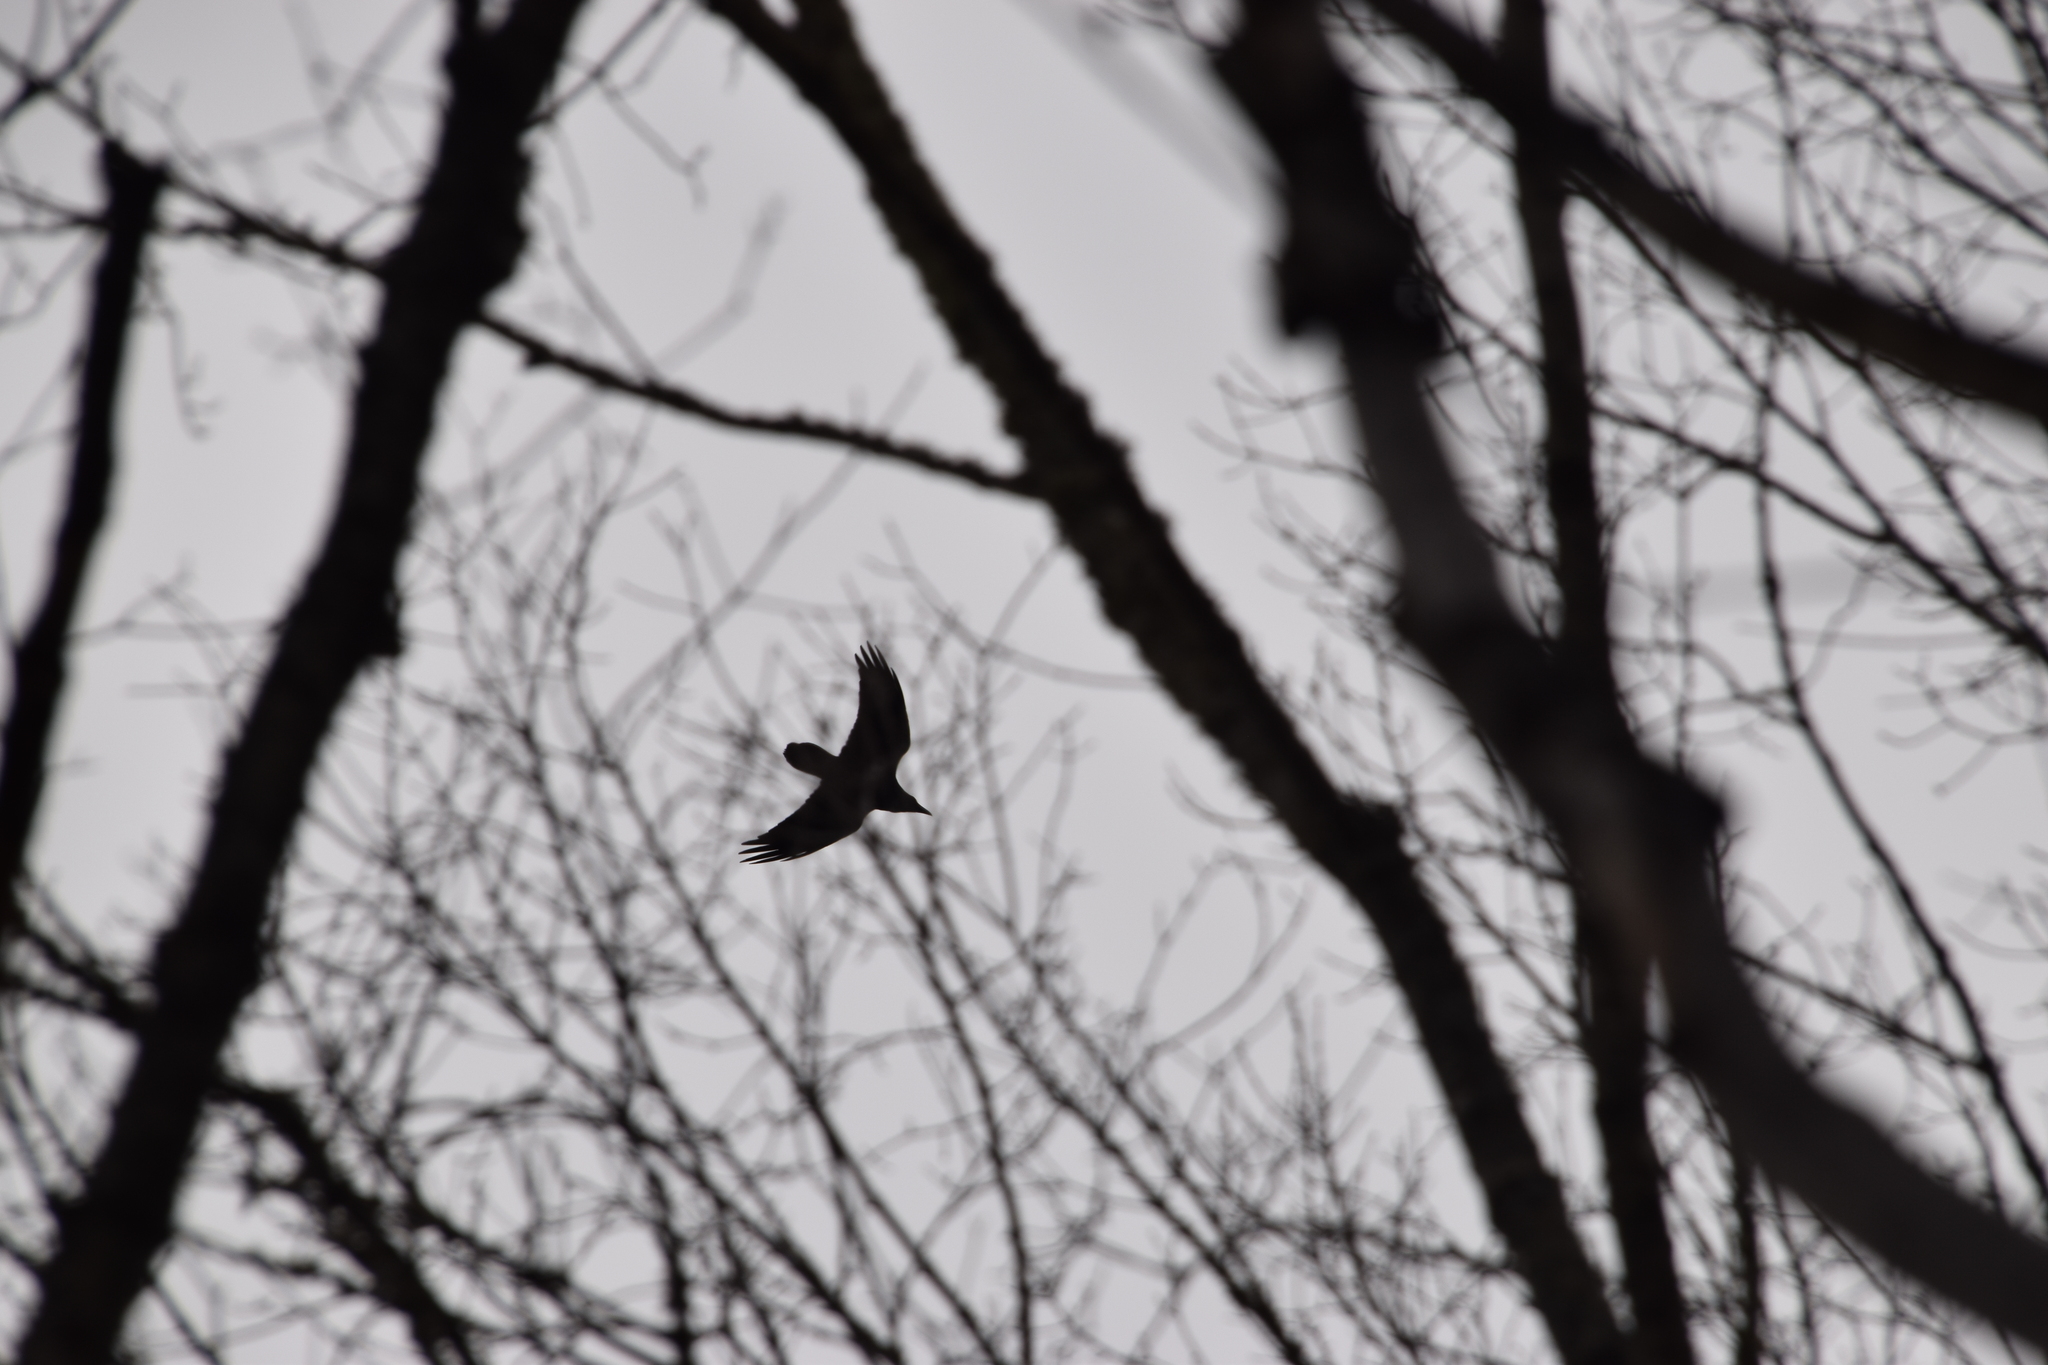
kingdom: Animalia
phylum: Chordata
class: Aves
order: Passeriformes
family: Corvidae
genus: Corvus
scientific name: Corvus corax
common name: Common raven
